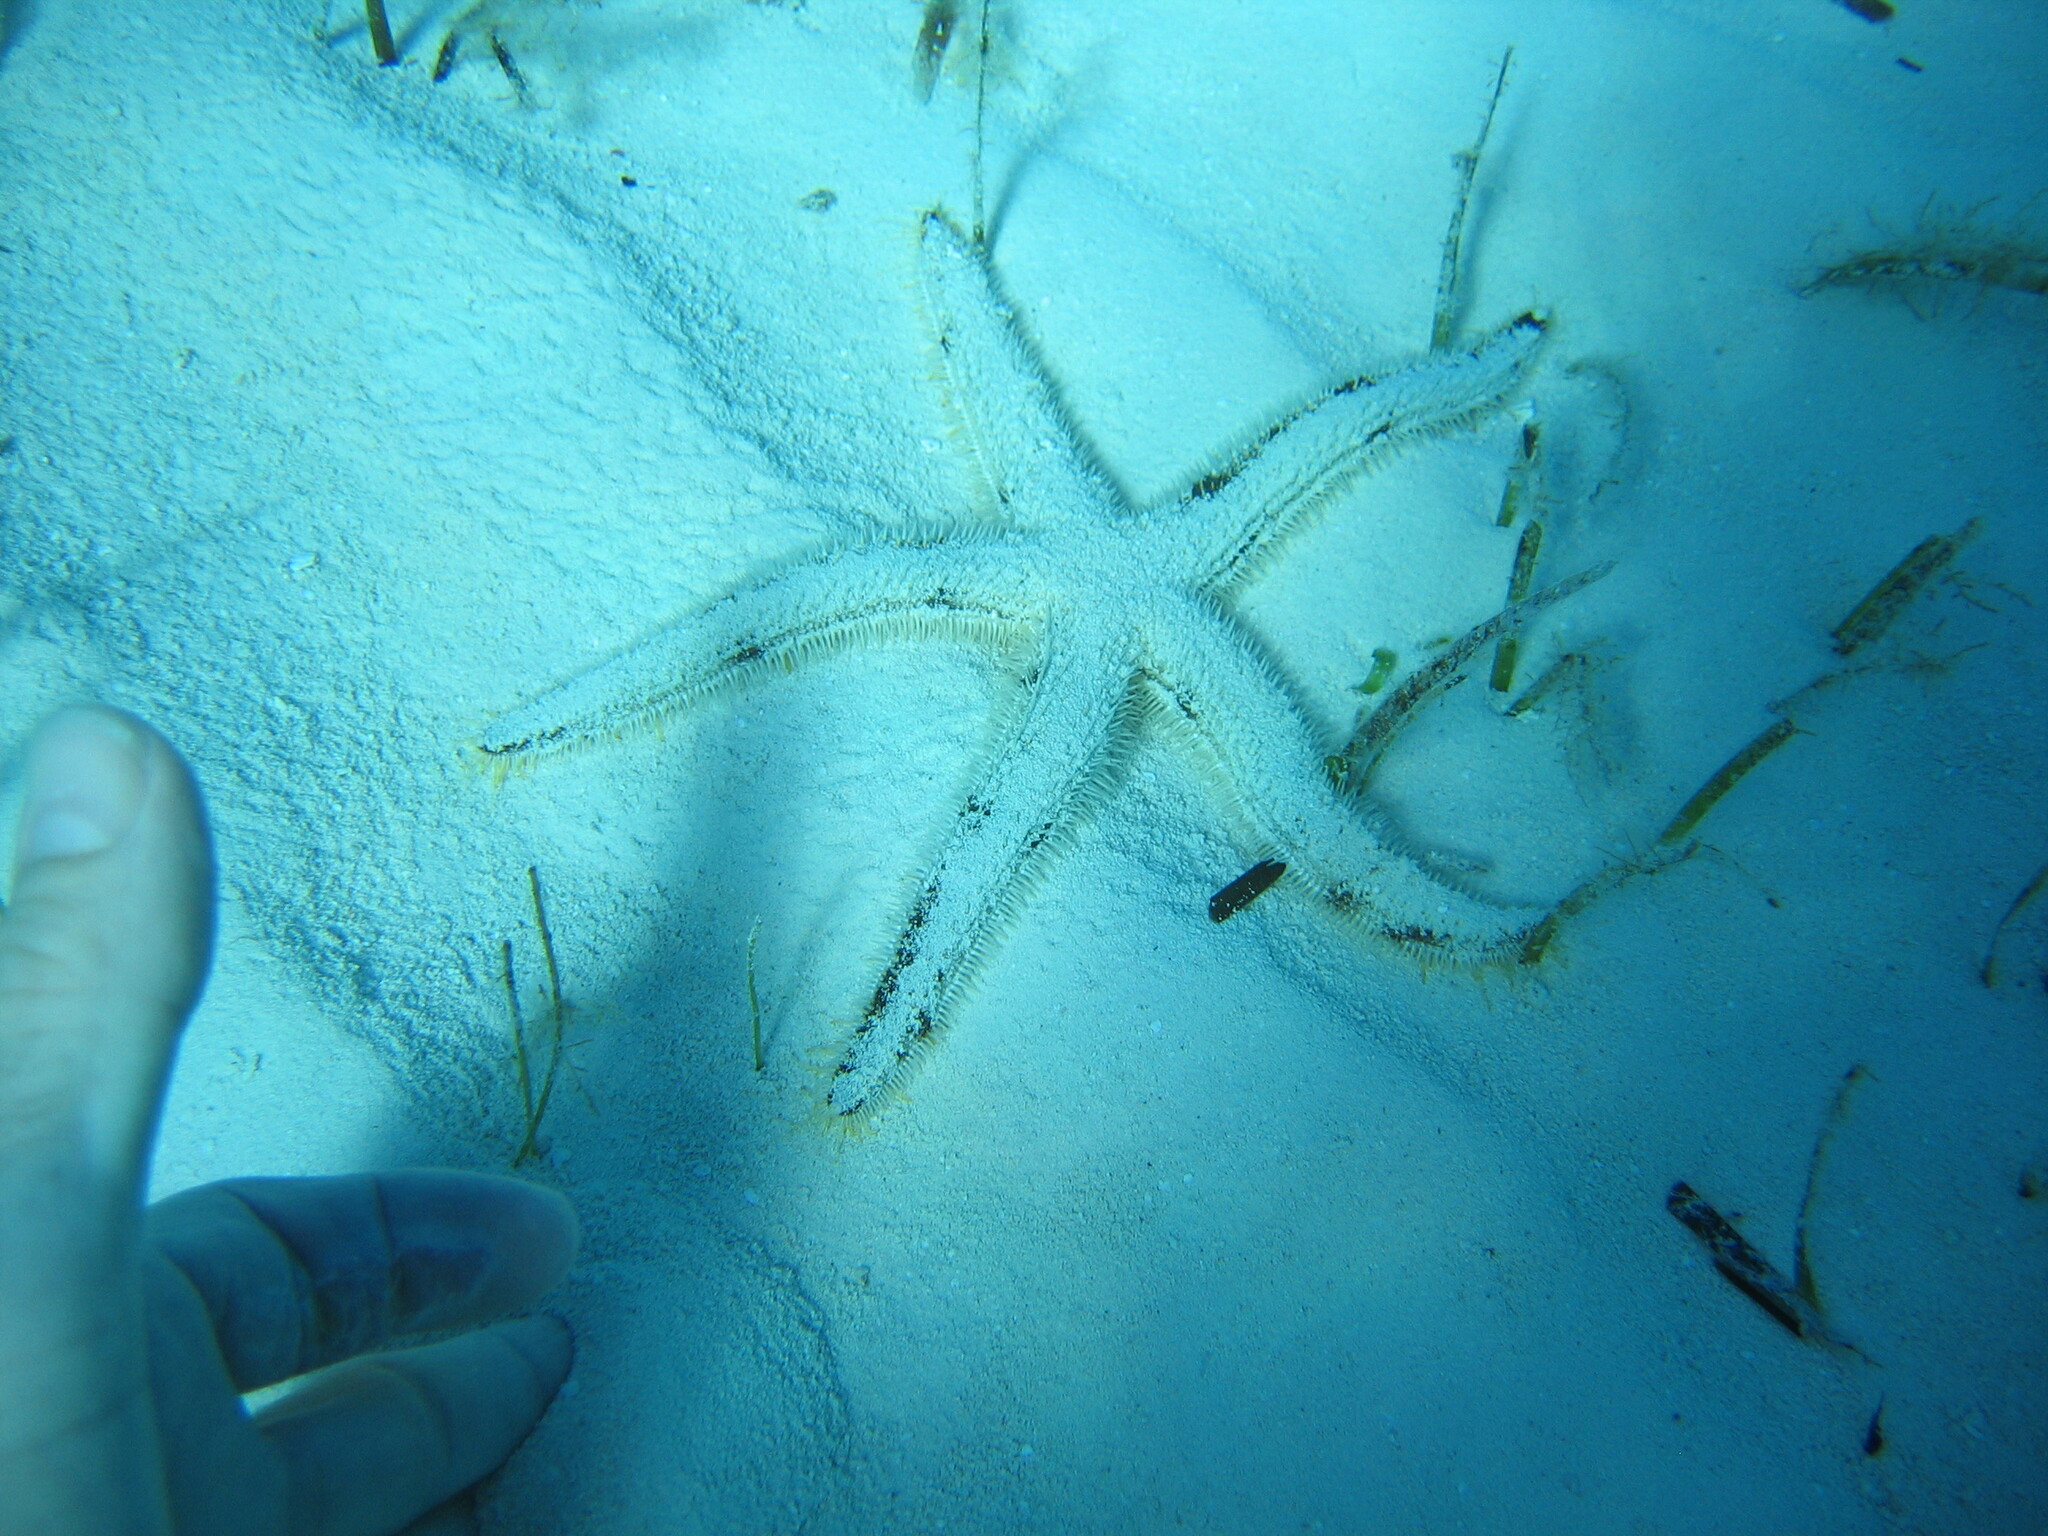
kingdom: Animalia
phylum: Echinodermata
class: Asteroidea
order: Paxillosida
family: Luidiidae
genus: Luidia
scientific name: Luidia alternata
